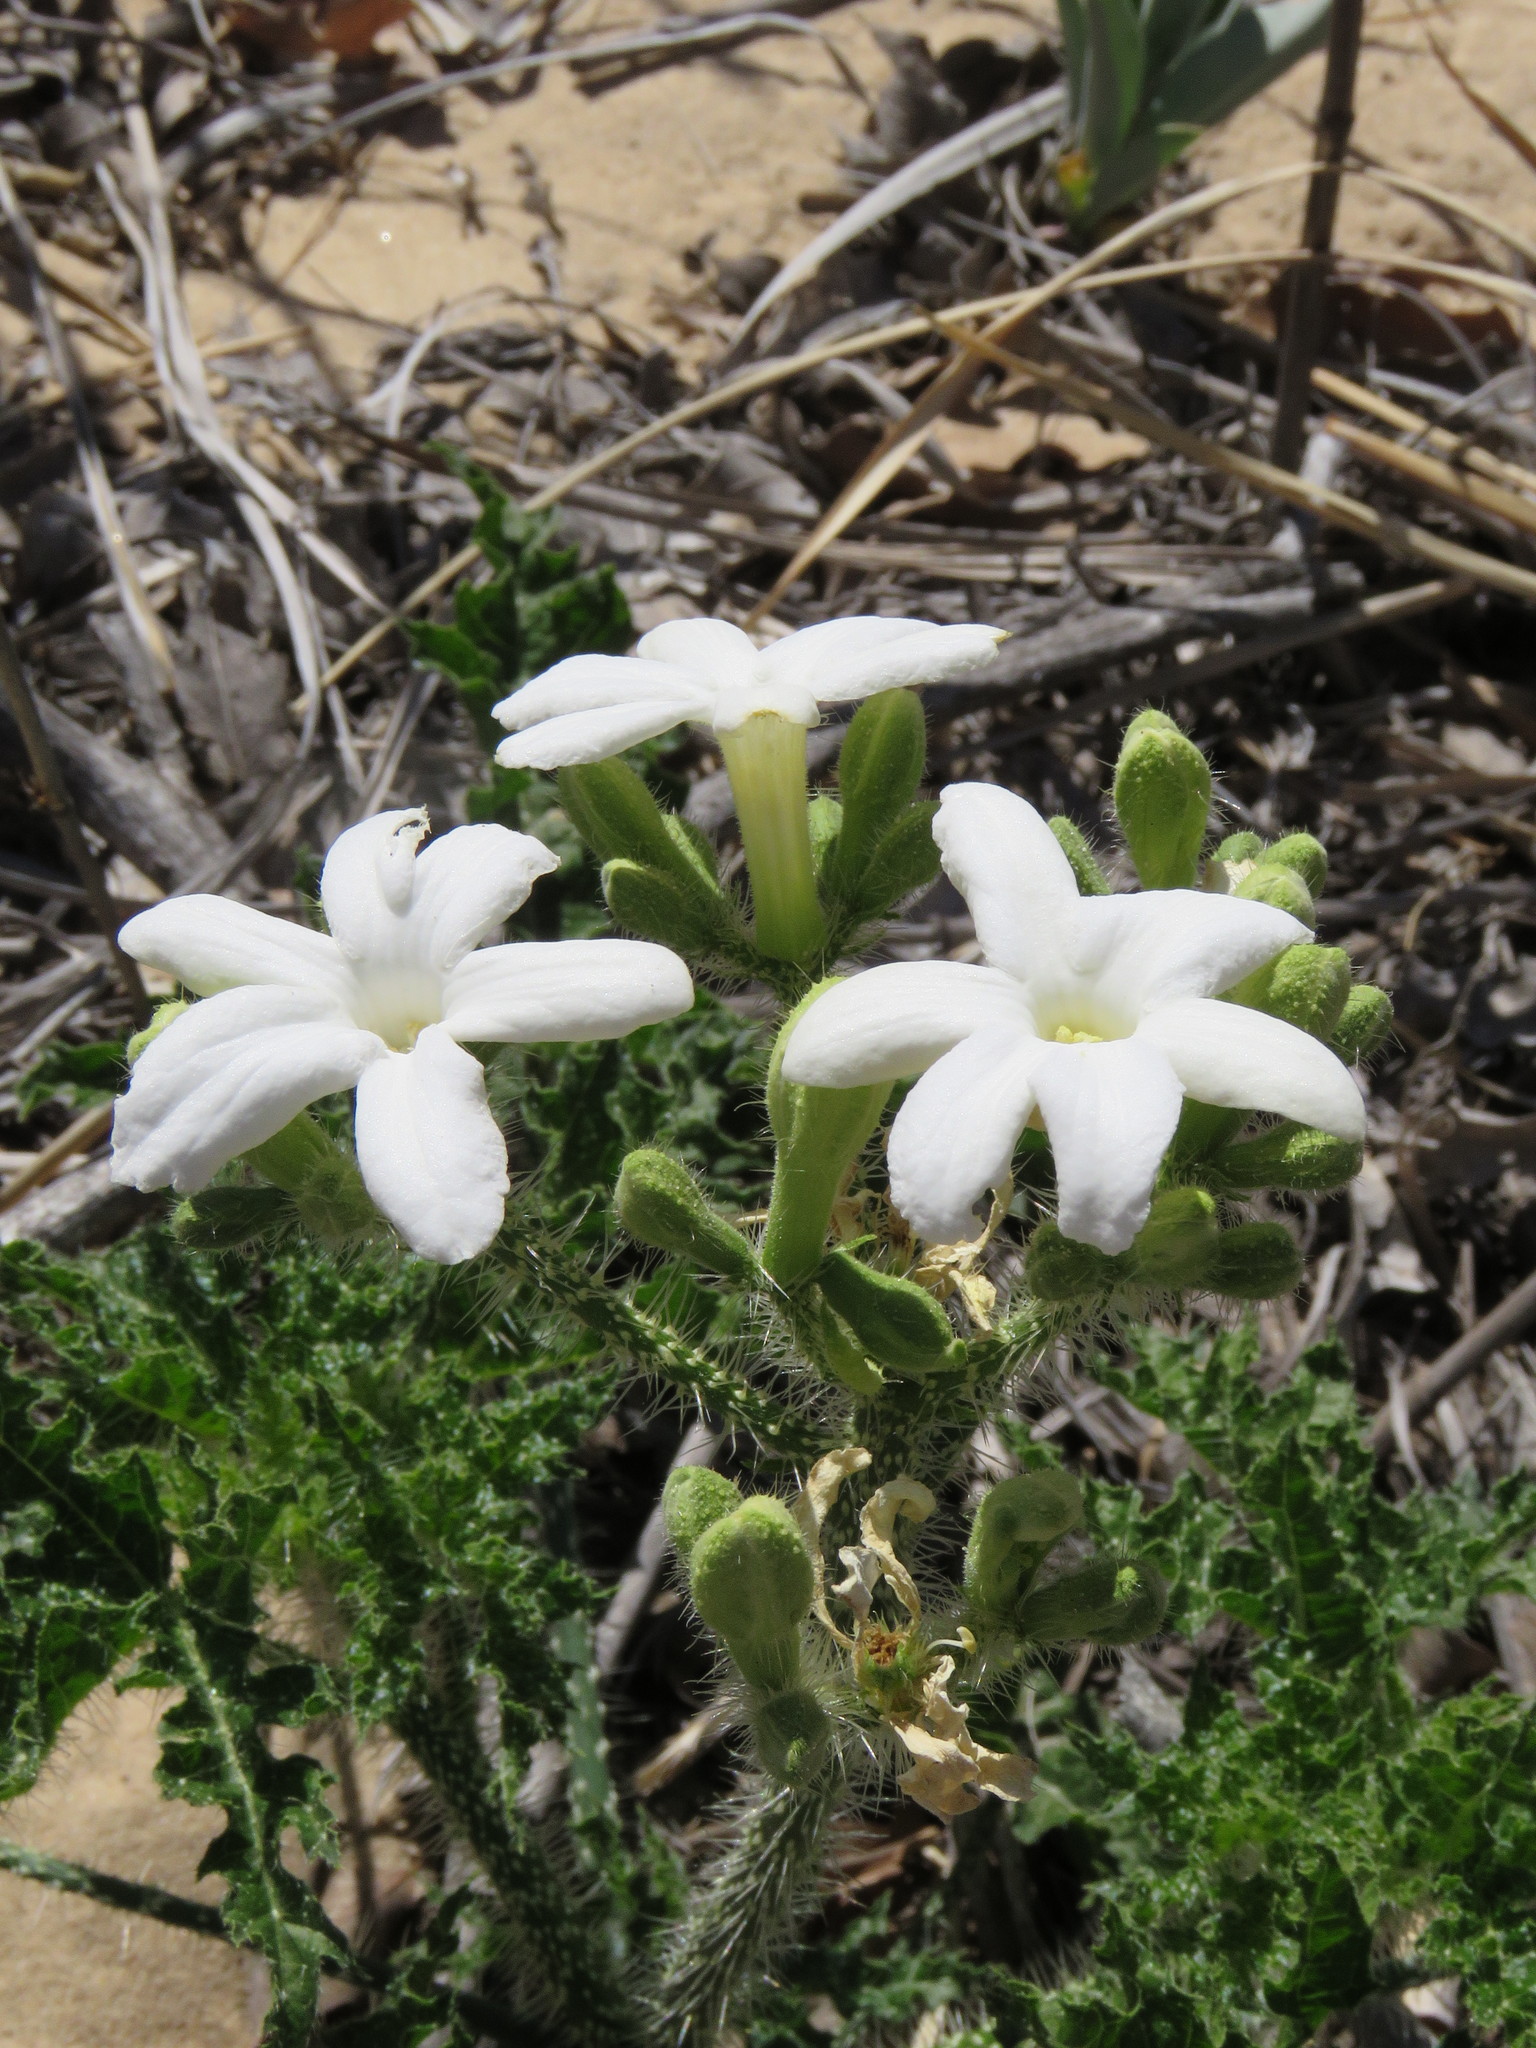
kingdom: Plantae
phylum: Tracheophyta
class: Magnoliopsida
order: Malpighiales
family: Euphorbiaceae
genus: Cnidoscolus
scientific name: Cnidoscolus texanus
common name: Texas bull-nettle
